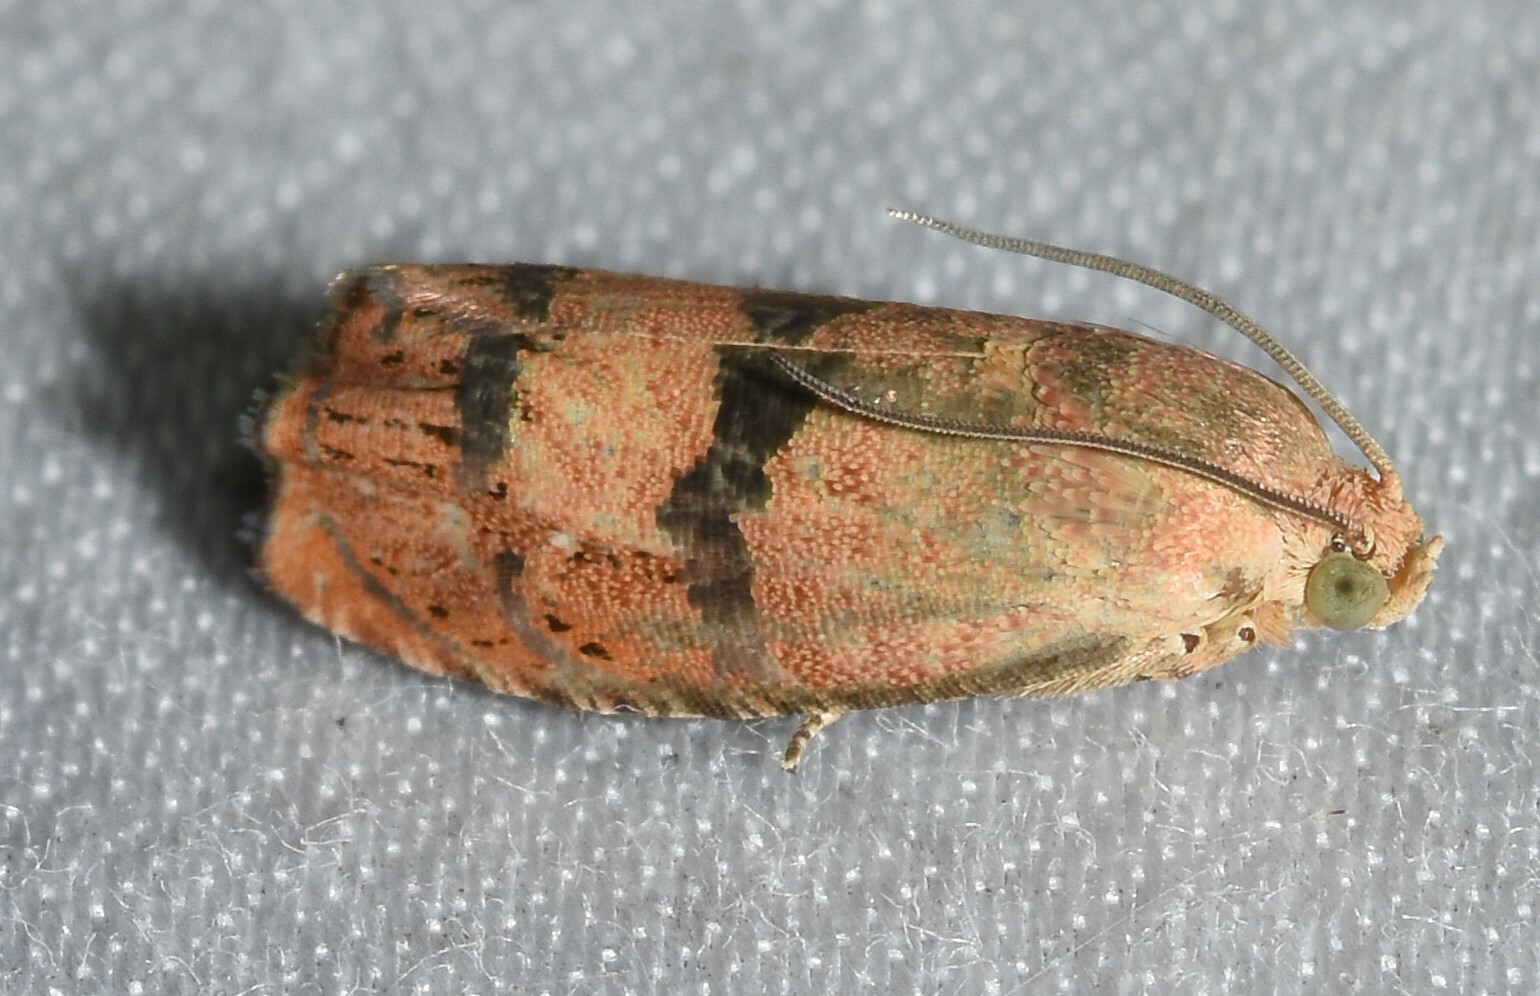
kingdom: Animalia
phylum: Arthropoda
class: Insecta
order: Lepidoptera
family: Tortricidae
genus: Cydia
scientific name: Cydia latiferreana
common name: Filbertworm moth
